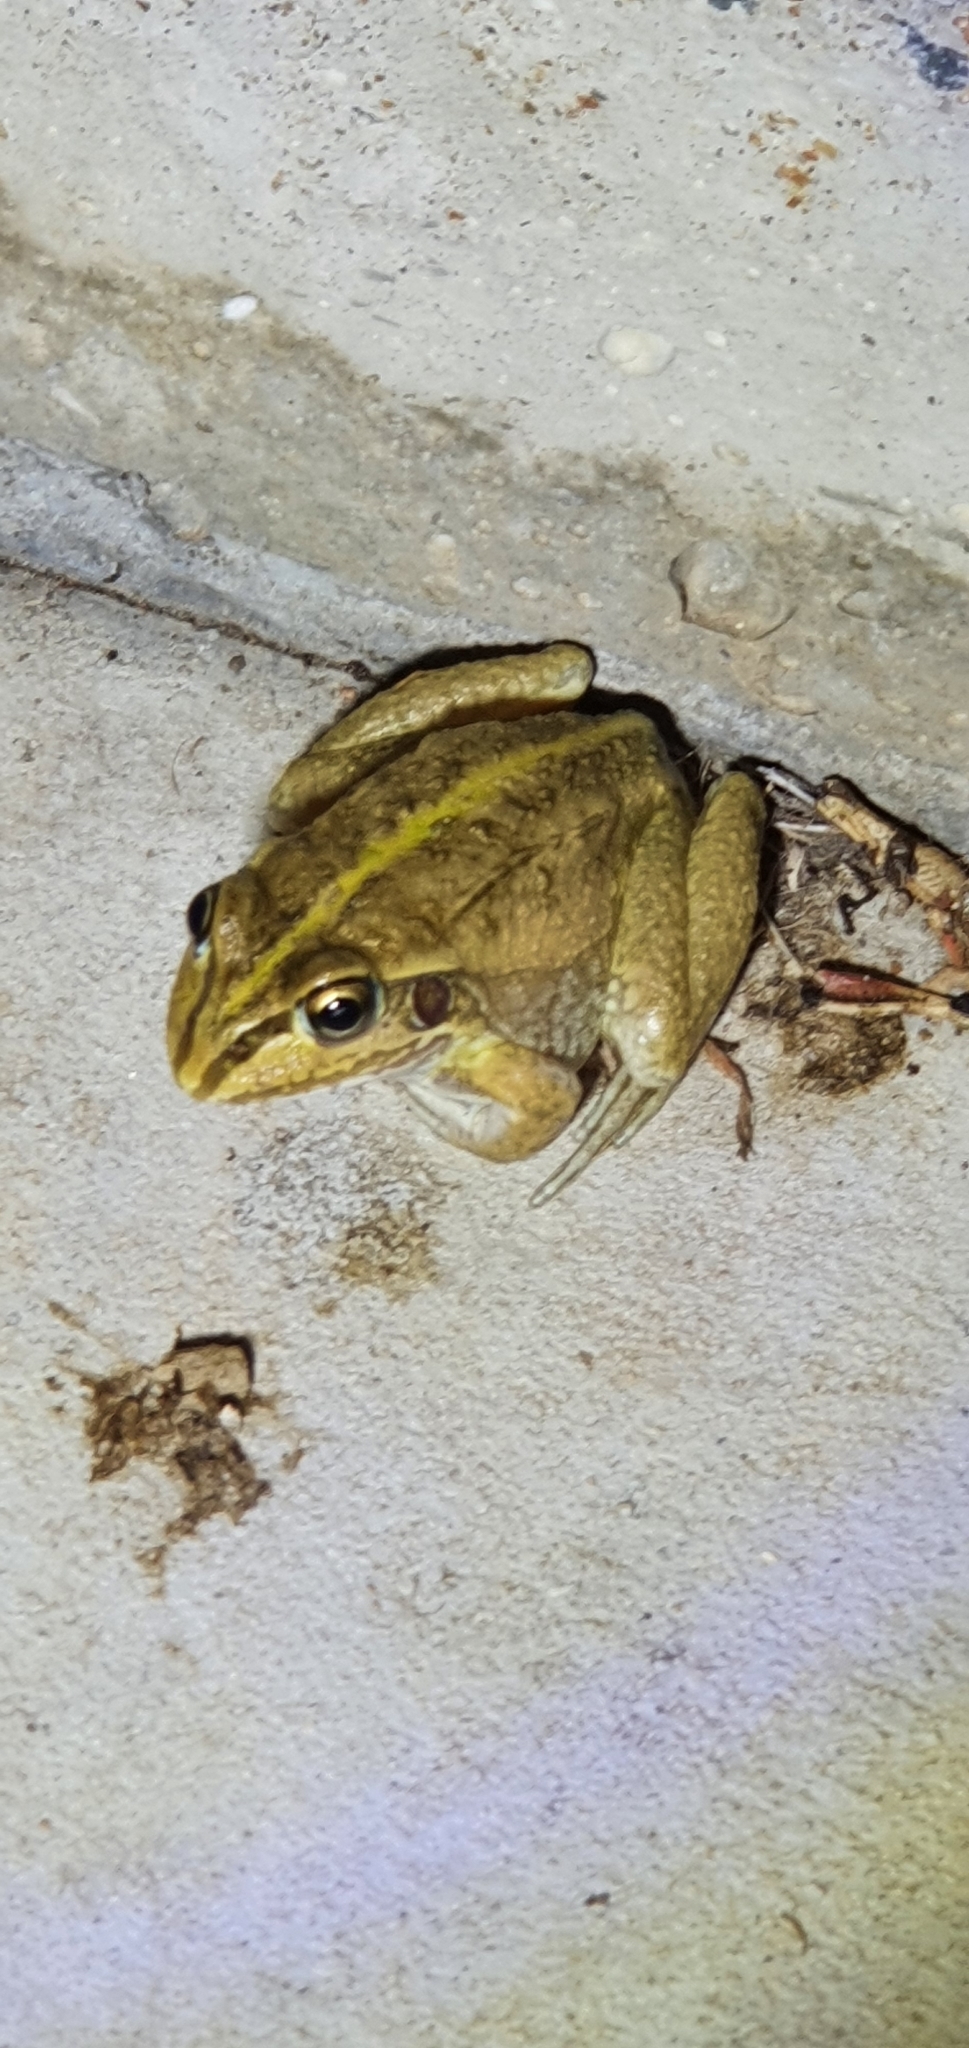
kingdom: Animalia
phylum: Chordata
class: Amphibia
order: Anura
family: Pelodryadidae
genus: Ranoidea
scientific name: Ranoidea alboguttata
